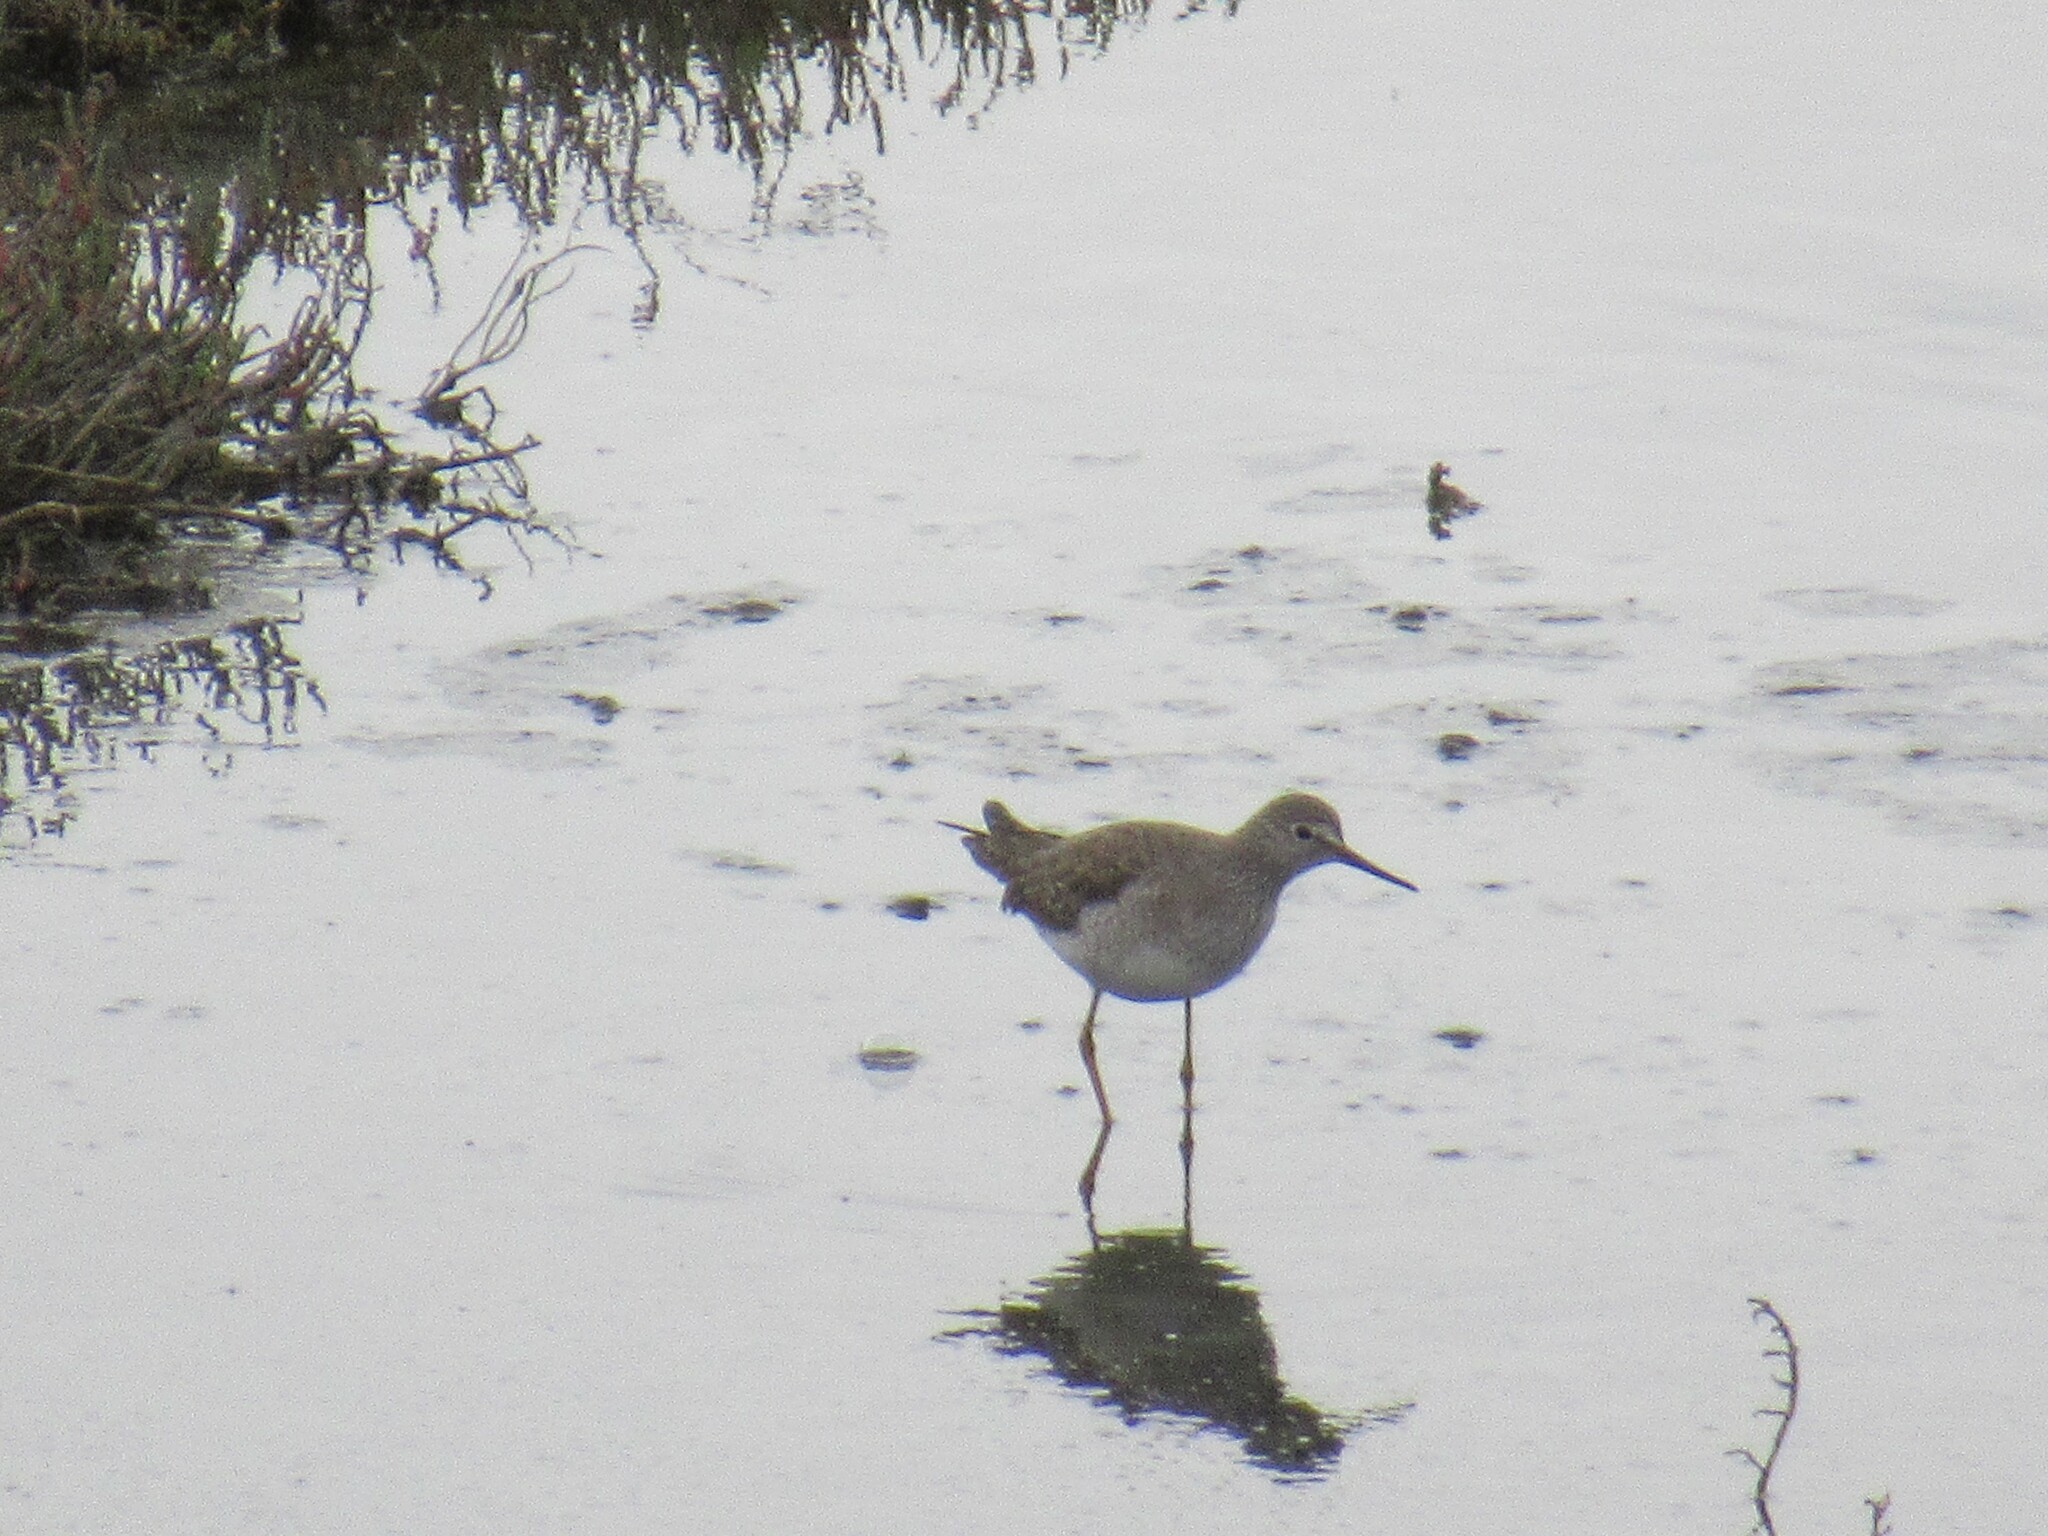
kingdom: Animalia
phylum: Chordata
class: Aves
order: Charadriiformes
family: Scolopacidae
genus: Tringa
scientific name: Tringa flavipes
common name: Lesser yellowlegs
